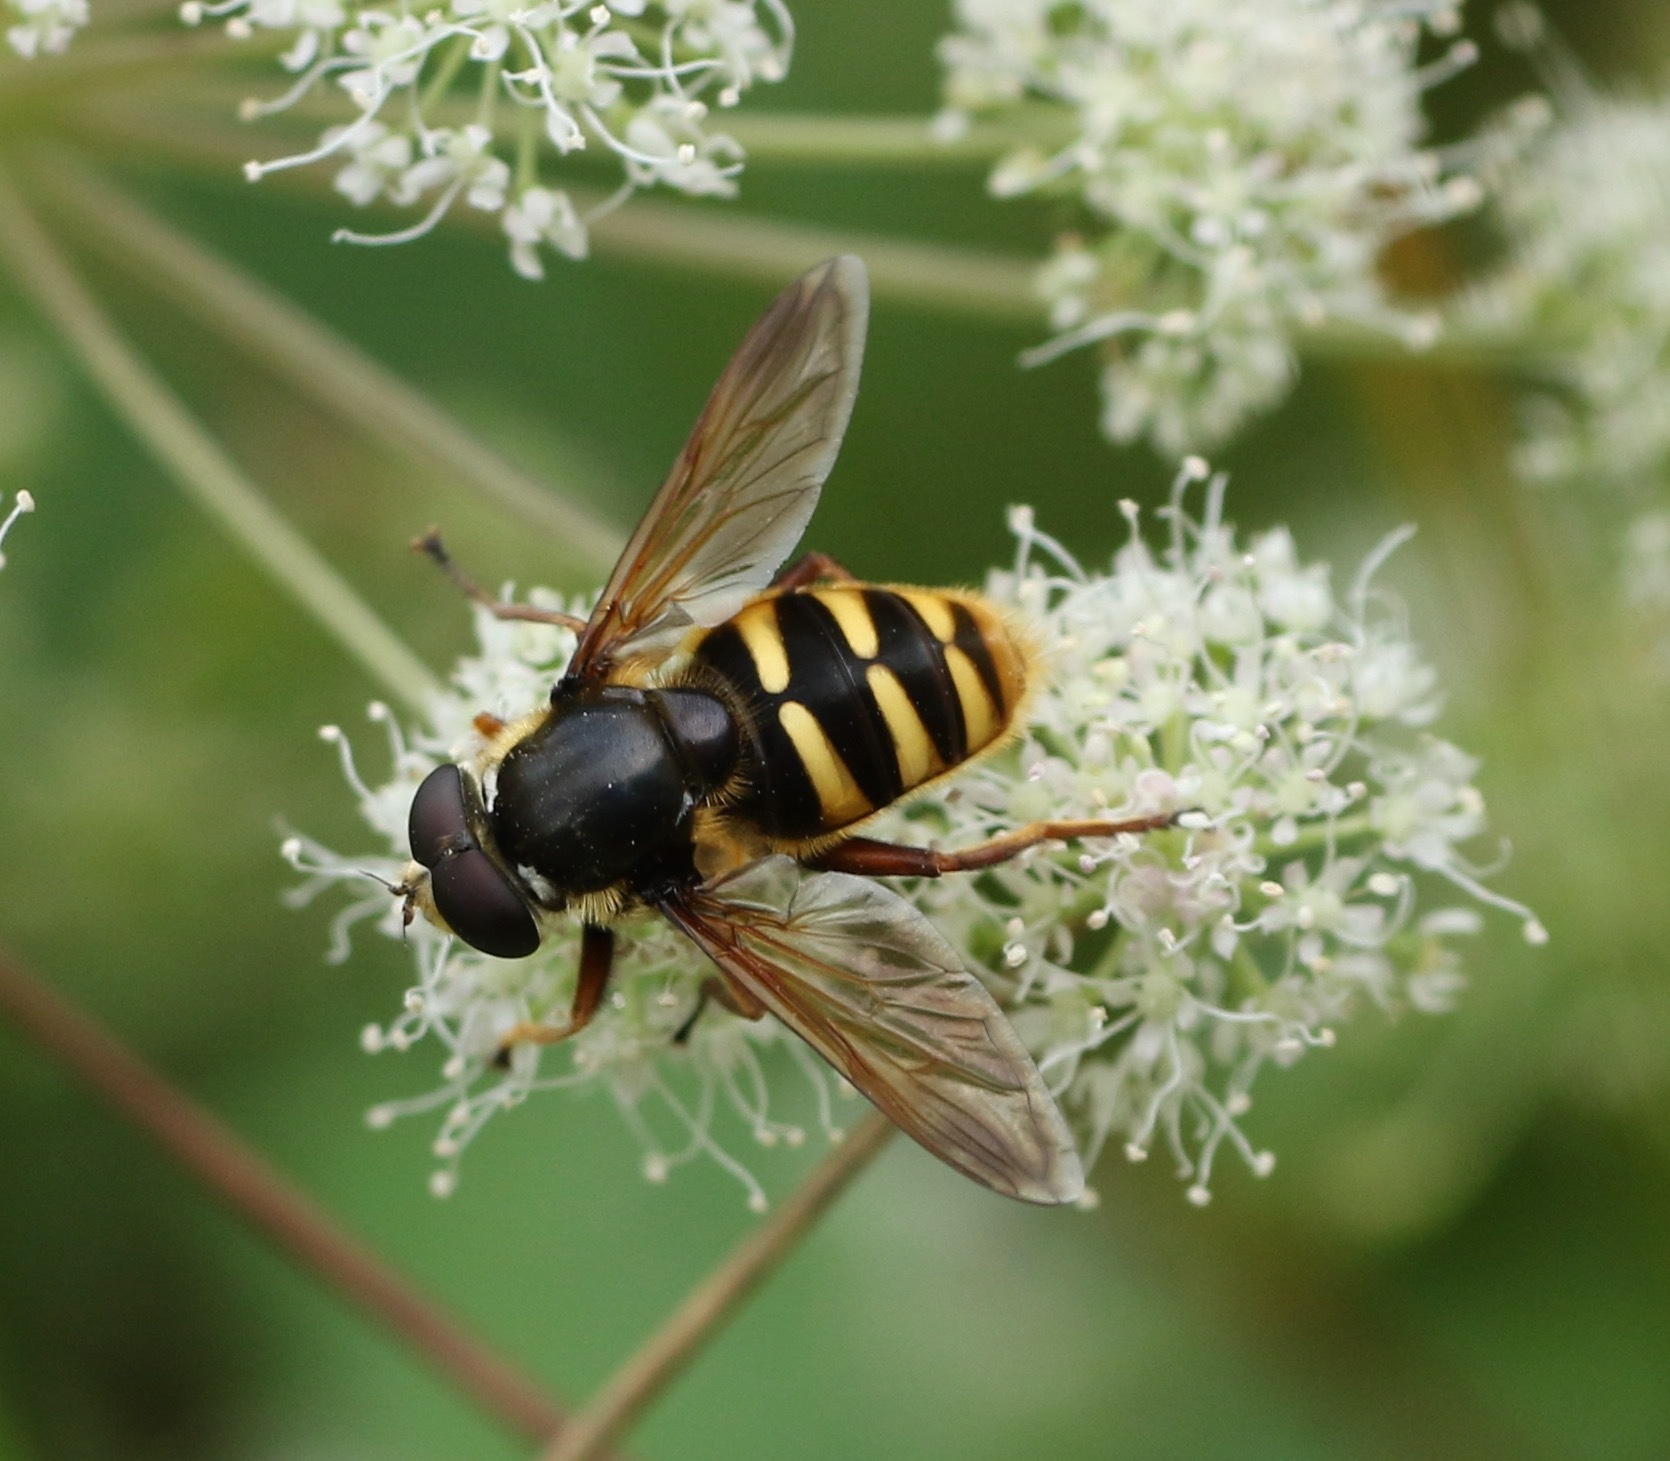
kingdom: Animalia
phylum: Arthropoda
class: Insecta
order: Diptera
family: Syrphidae
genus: Sericomyia
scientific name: Sericomyia silentis
